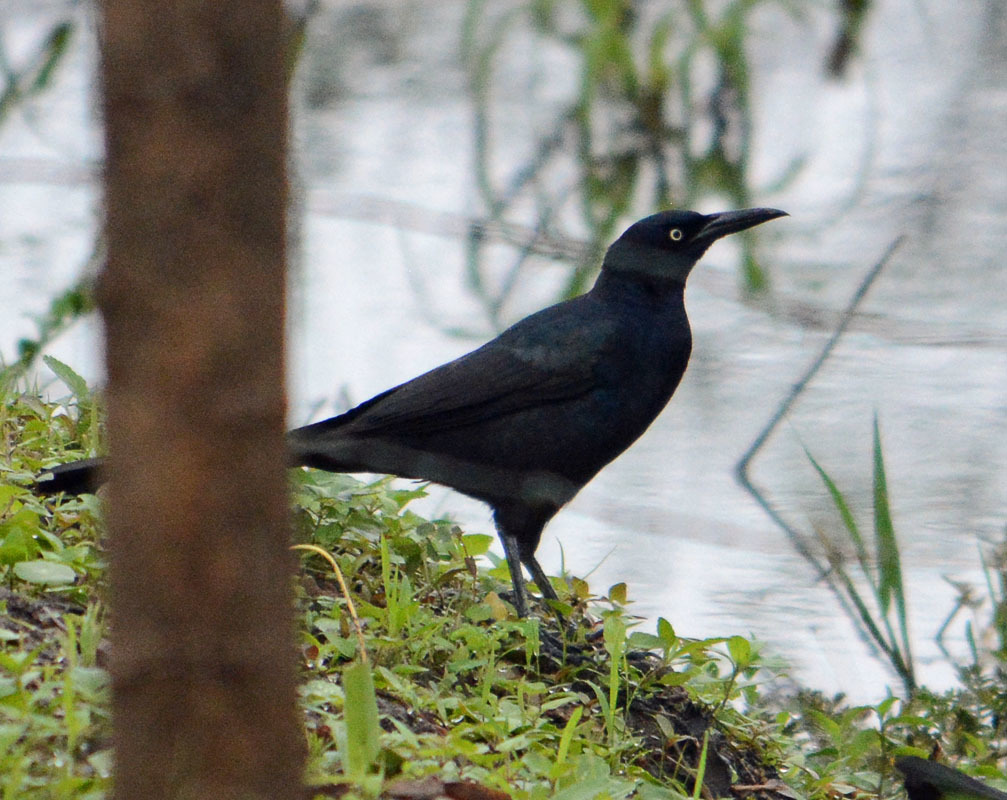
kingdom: Animalia
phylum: Chordata
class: Aves
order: Passeriformes
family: Icteridae
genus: Quiscalus
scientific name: Quiscalus mexicanus
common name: Great-tailed grackle
